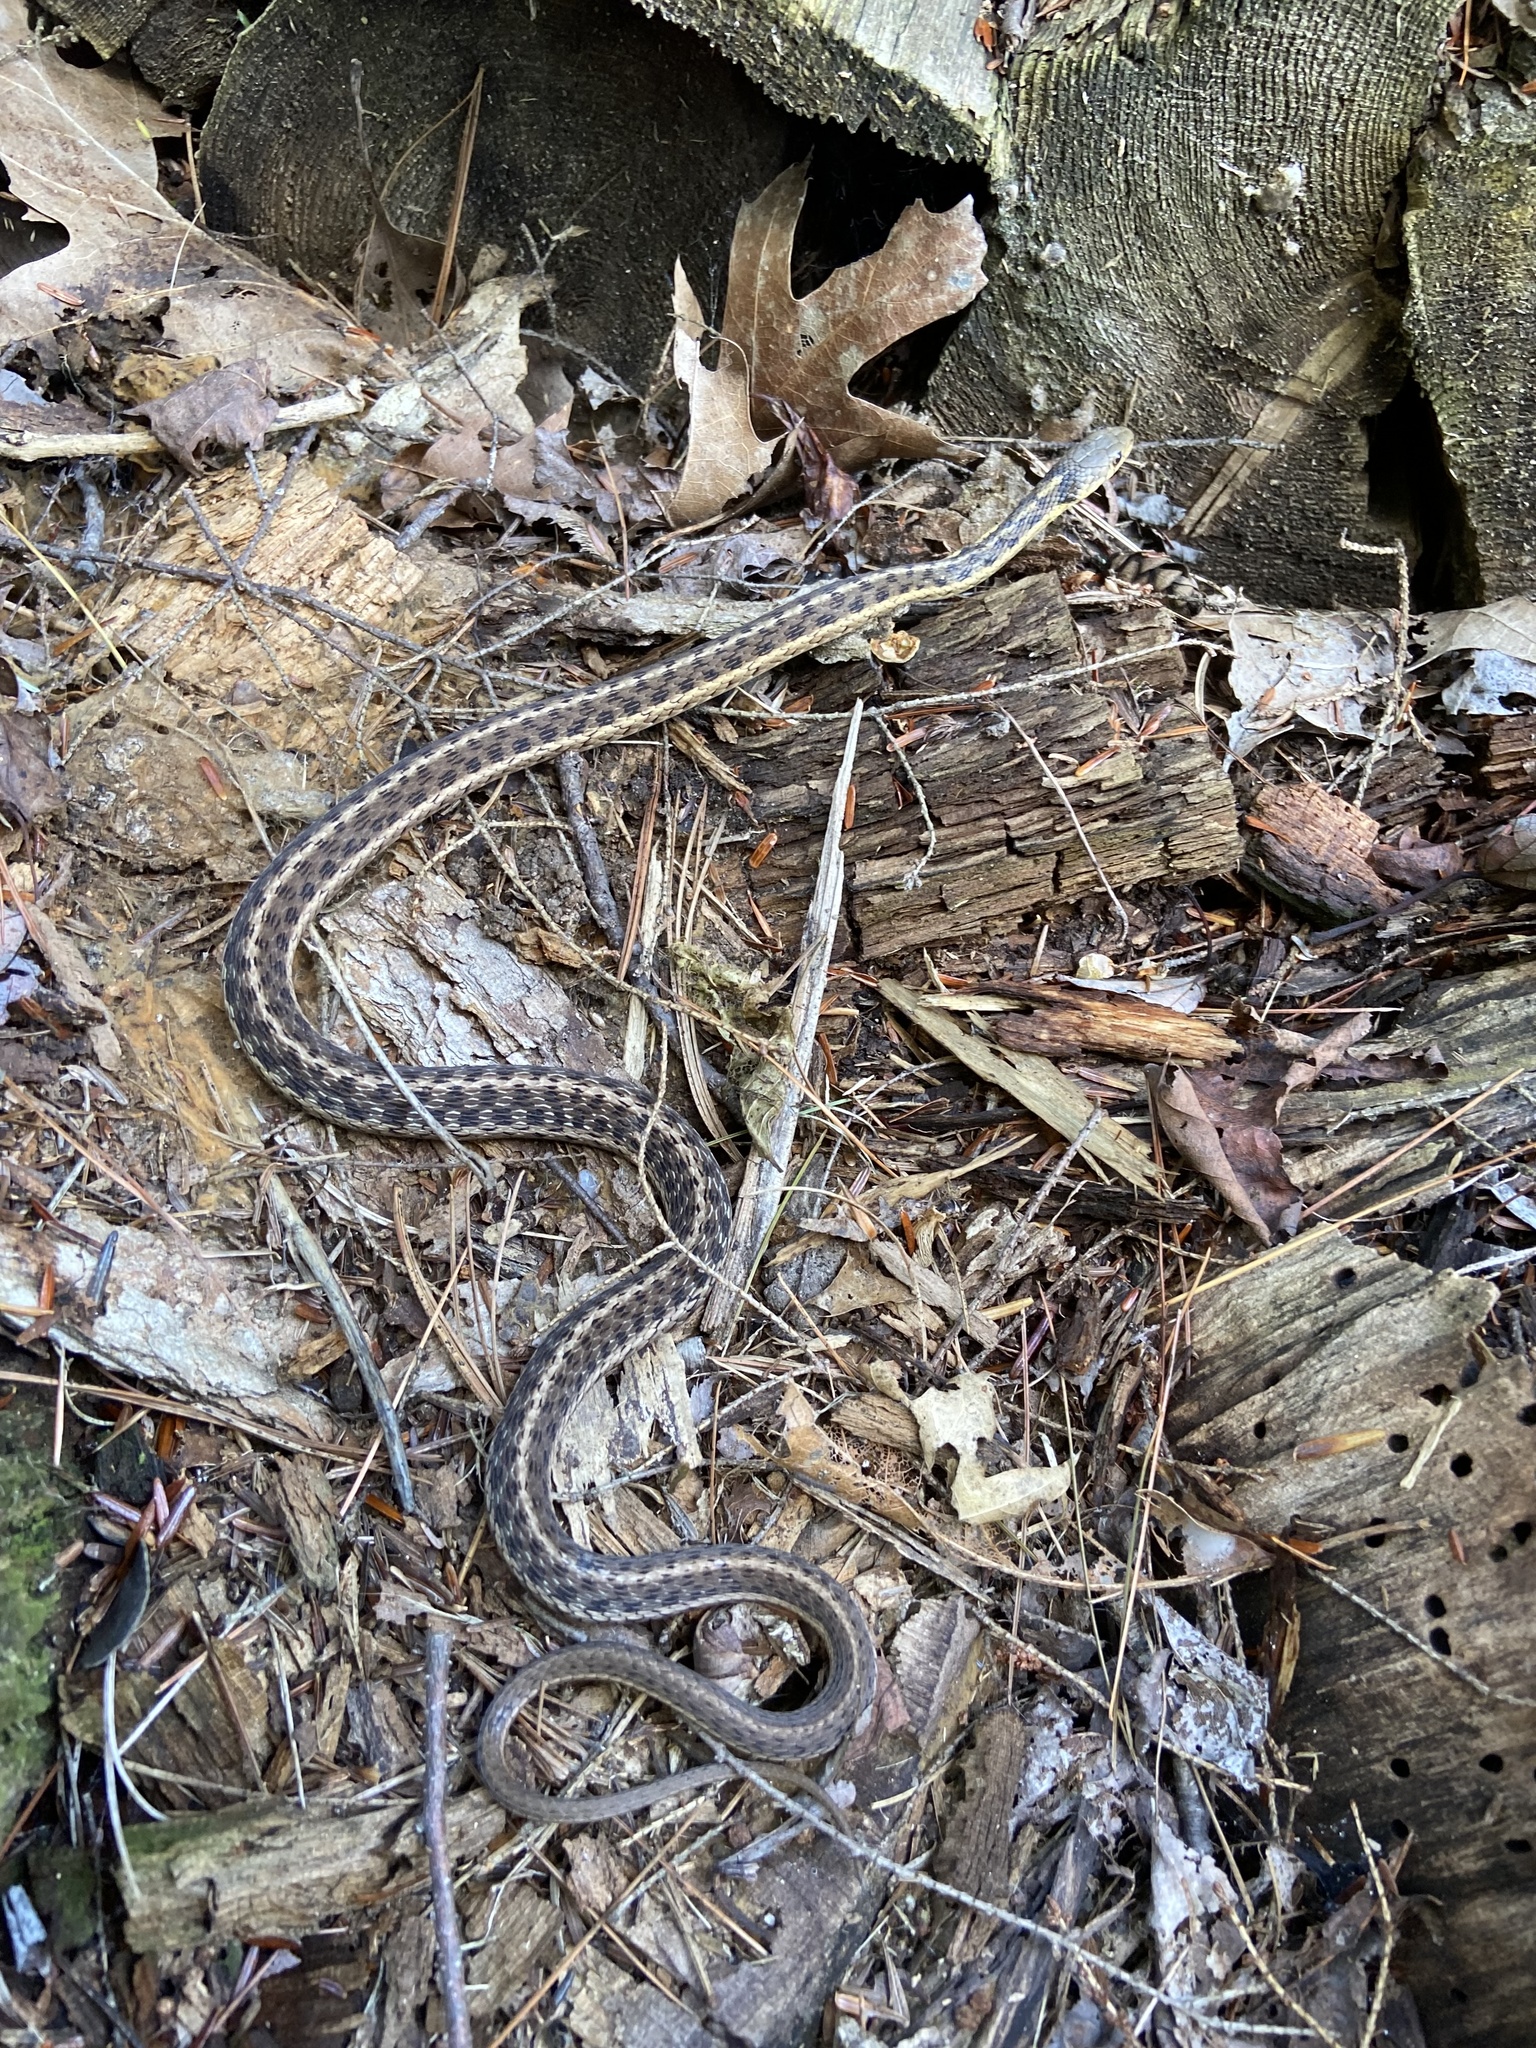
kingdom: Animalia
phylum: Chordata
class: Squamata
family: Colubridae
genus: Thamnophis
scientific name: Thamnophis sirtalis
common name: Common garter snake
